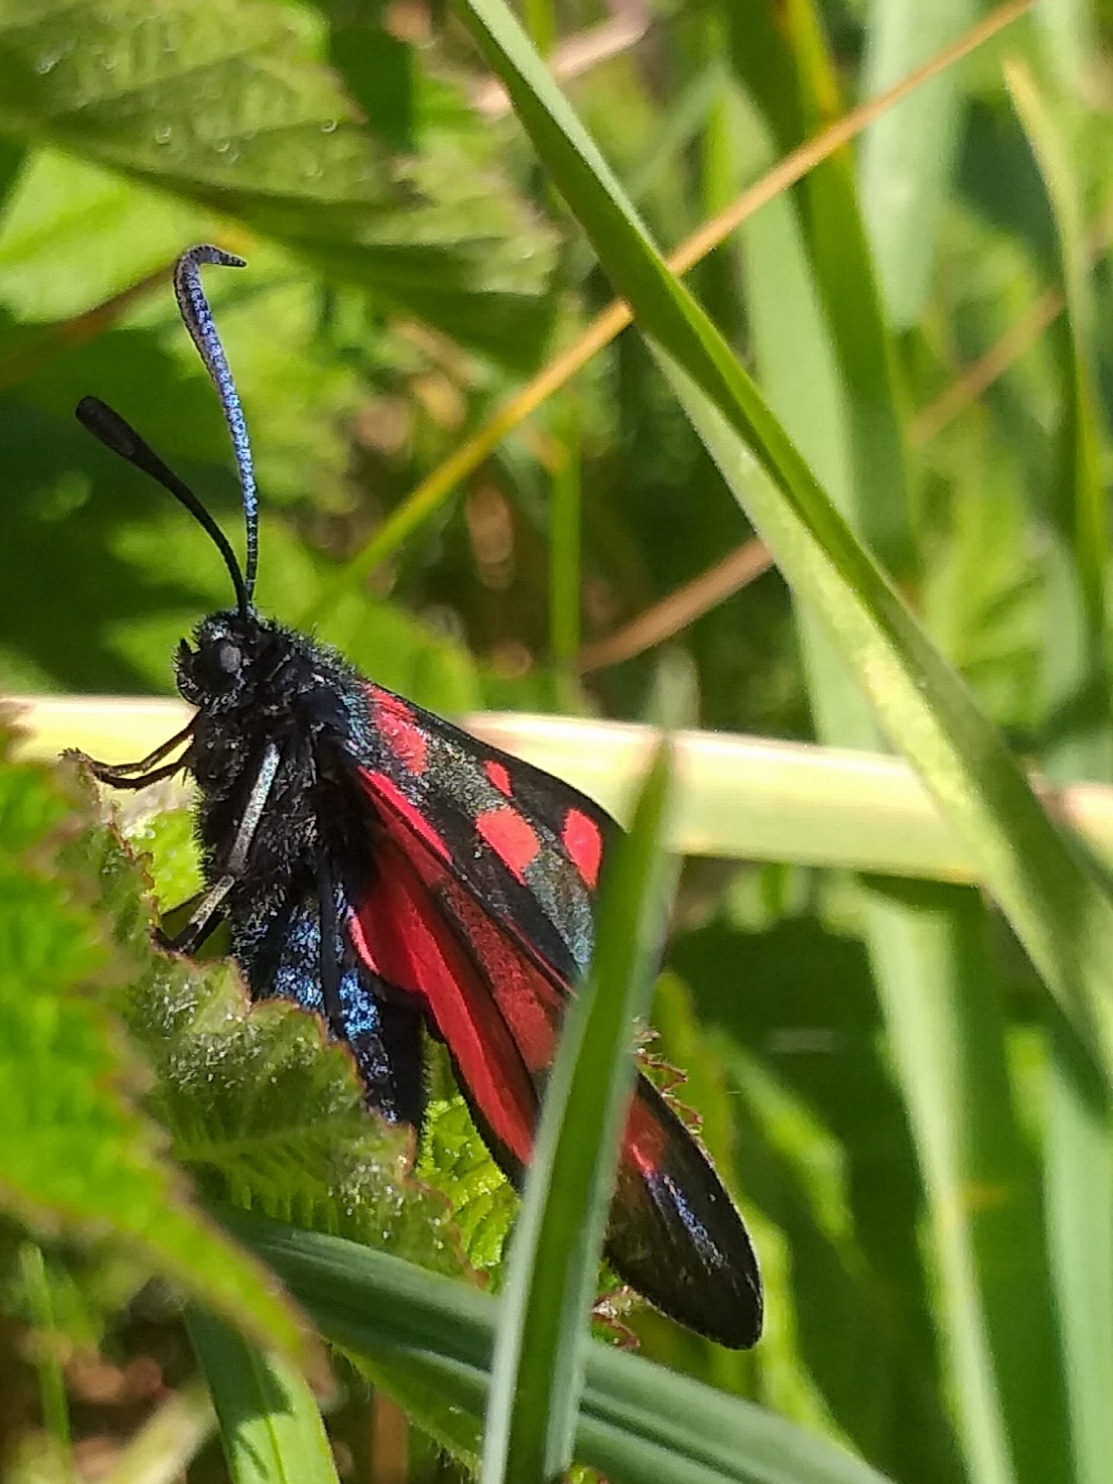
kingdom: Animalia
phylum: Arthropoda
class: Insecta
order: Lepidoptera
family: Zygaenidae
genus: Zygaena
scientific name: Zygaena lonicerae
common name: Narrow-bordered five-spot burnet
